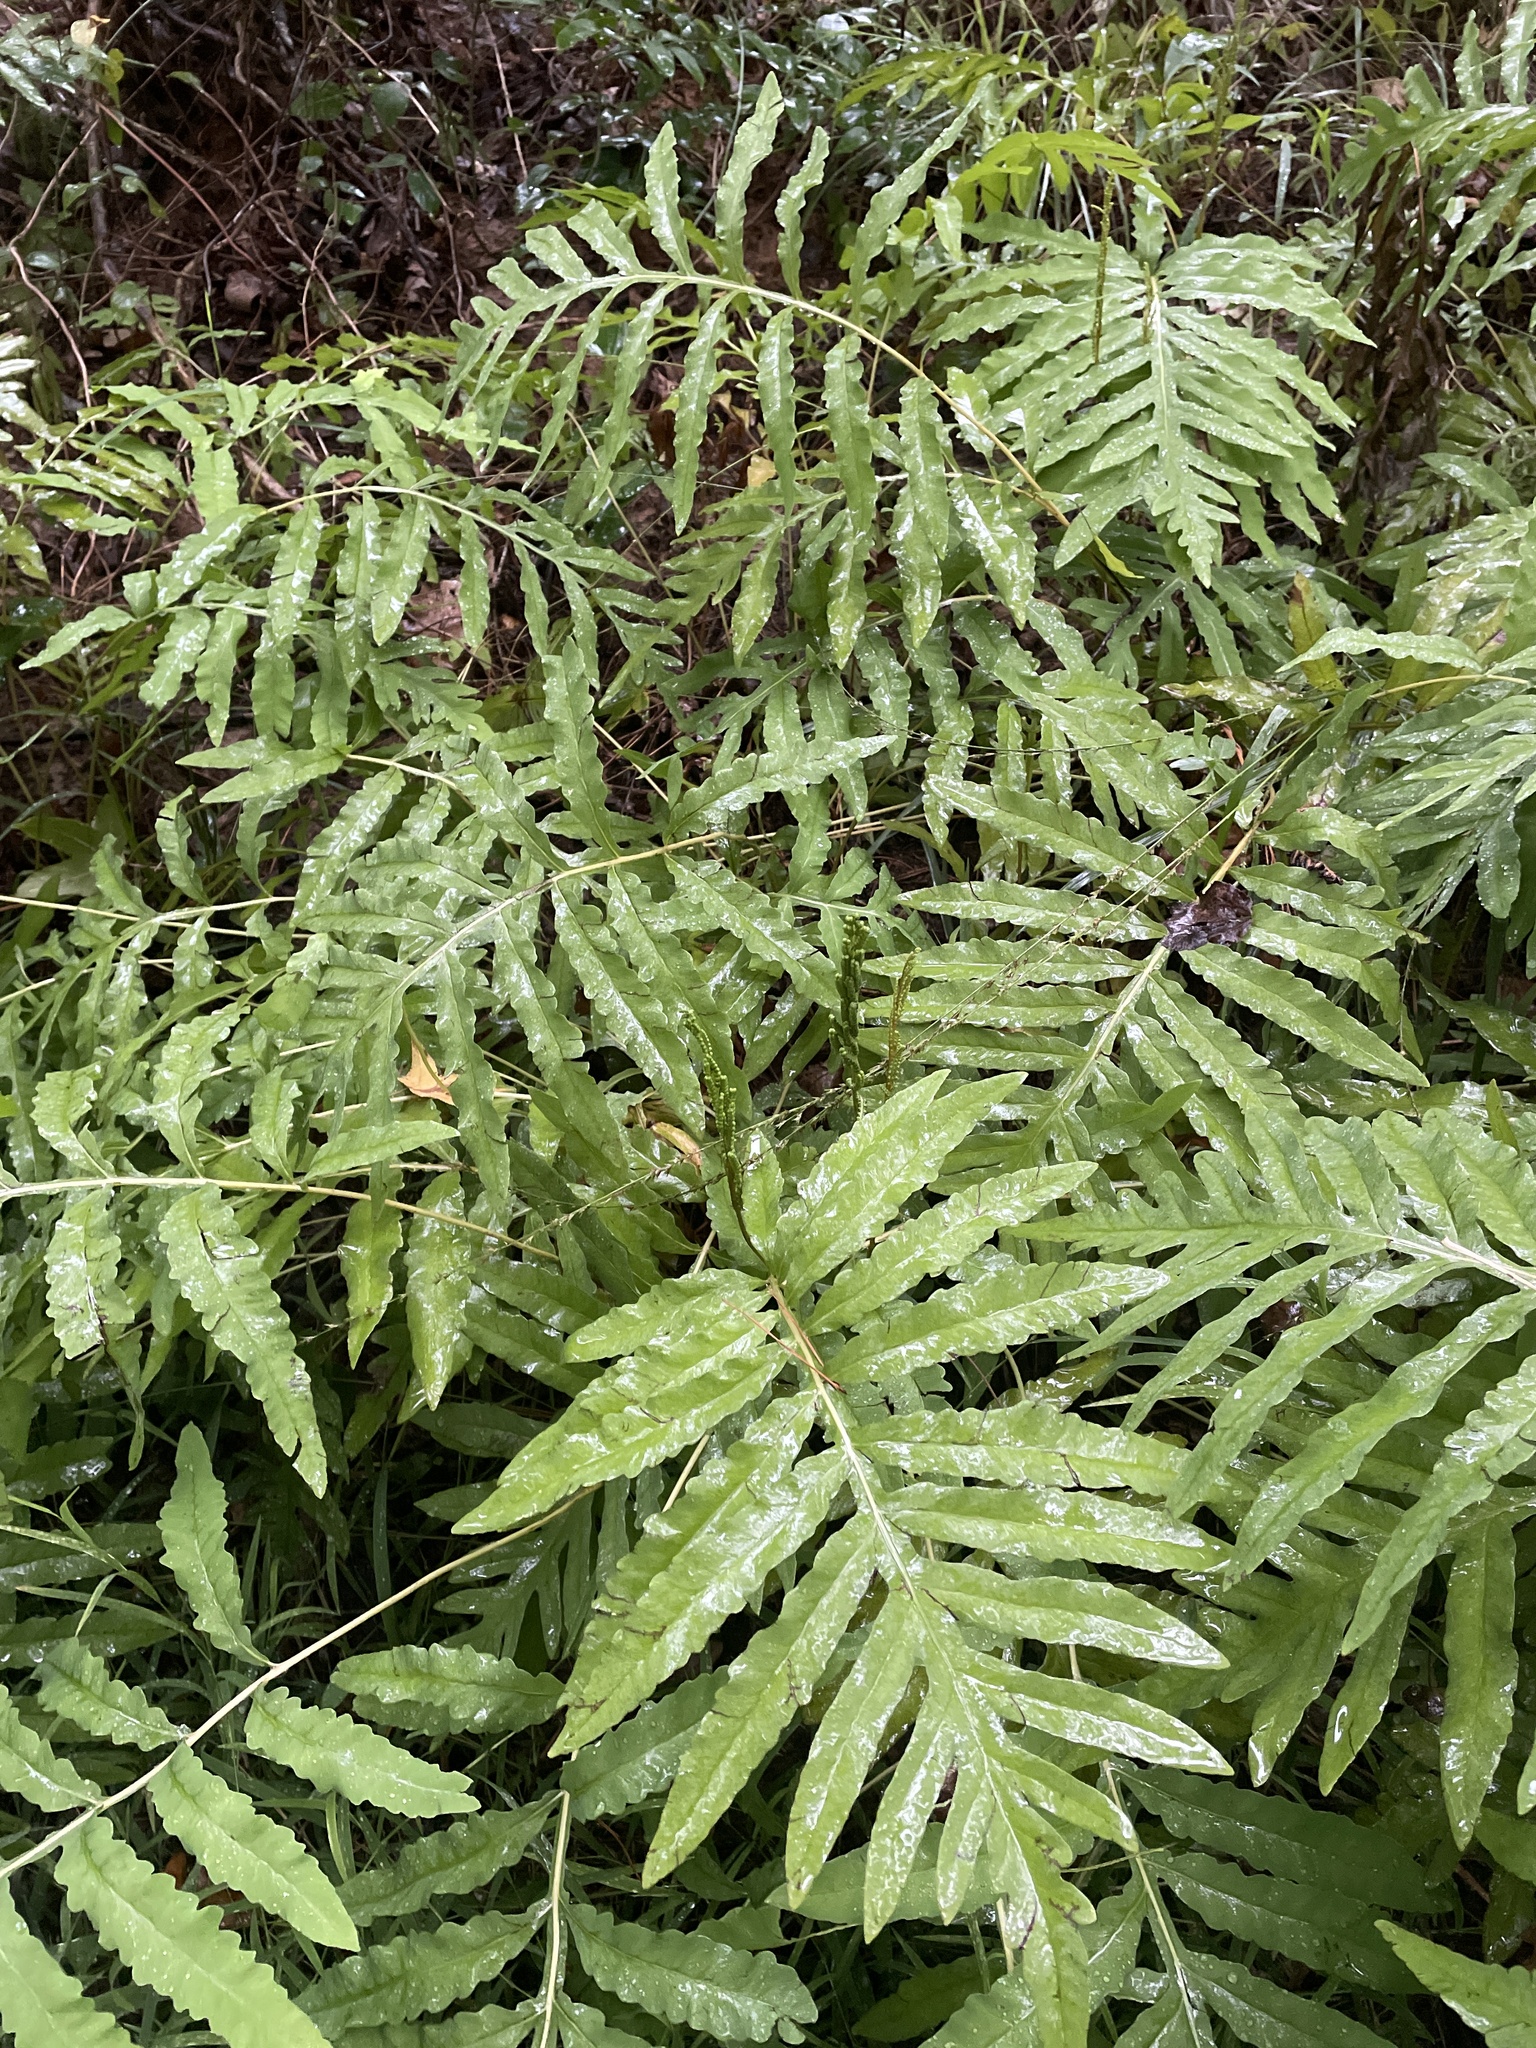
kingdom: Plantae
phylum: Tracheophyta
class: Polypodiopsida
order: Polypodiales
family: Onocleaceae
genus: Onoclea
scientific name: Onoclea sensibilis
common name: Sensitive fern
